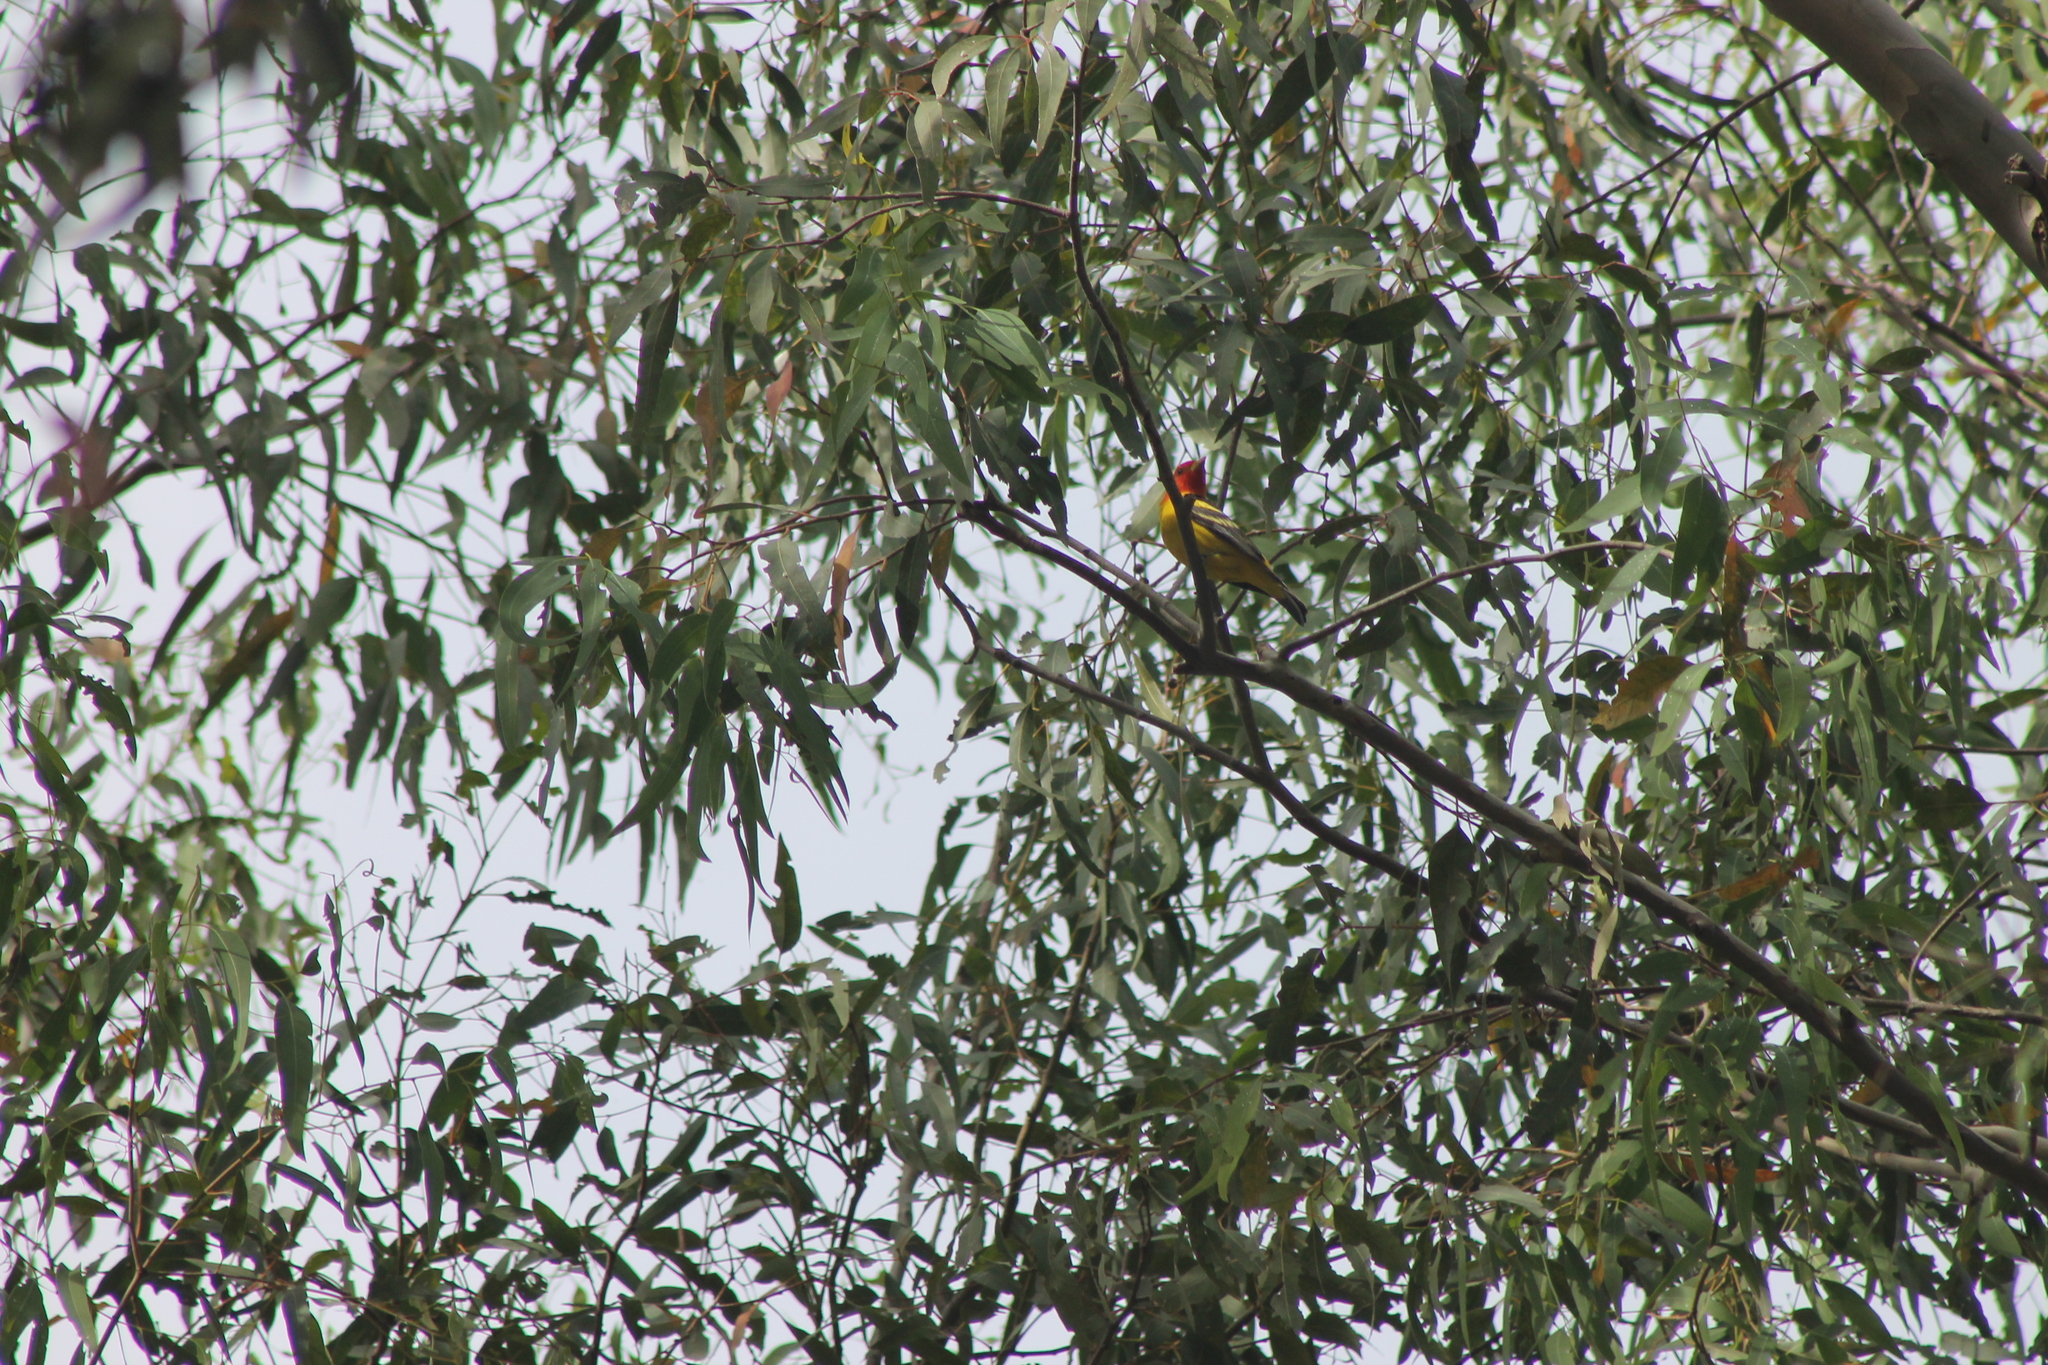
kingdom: Animalia
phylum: Chordata
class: Aves
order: Passeriformes
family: Cardinalidae
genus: Piranga
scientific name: Piranga ludoviciana
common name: Western tanager
